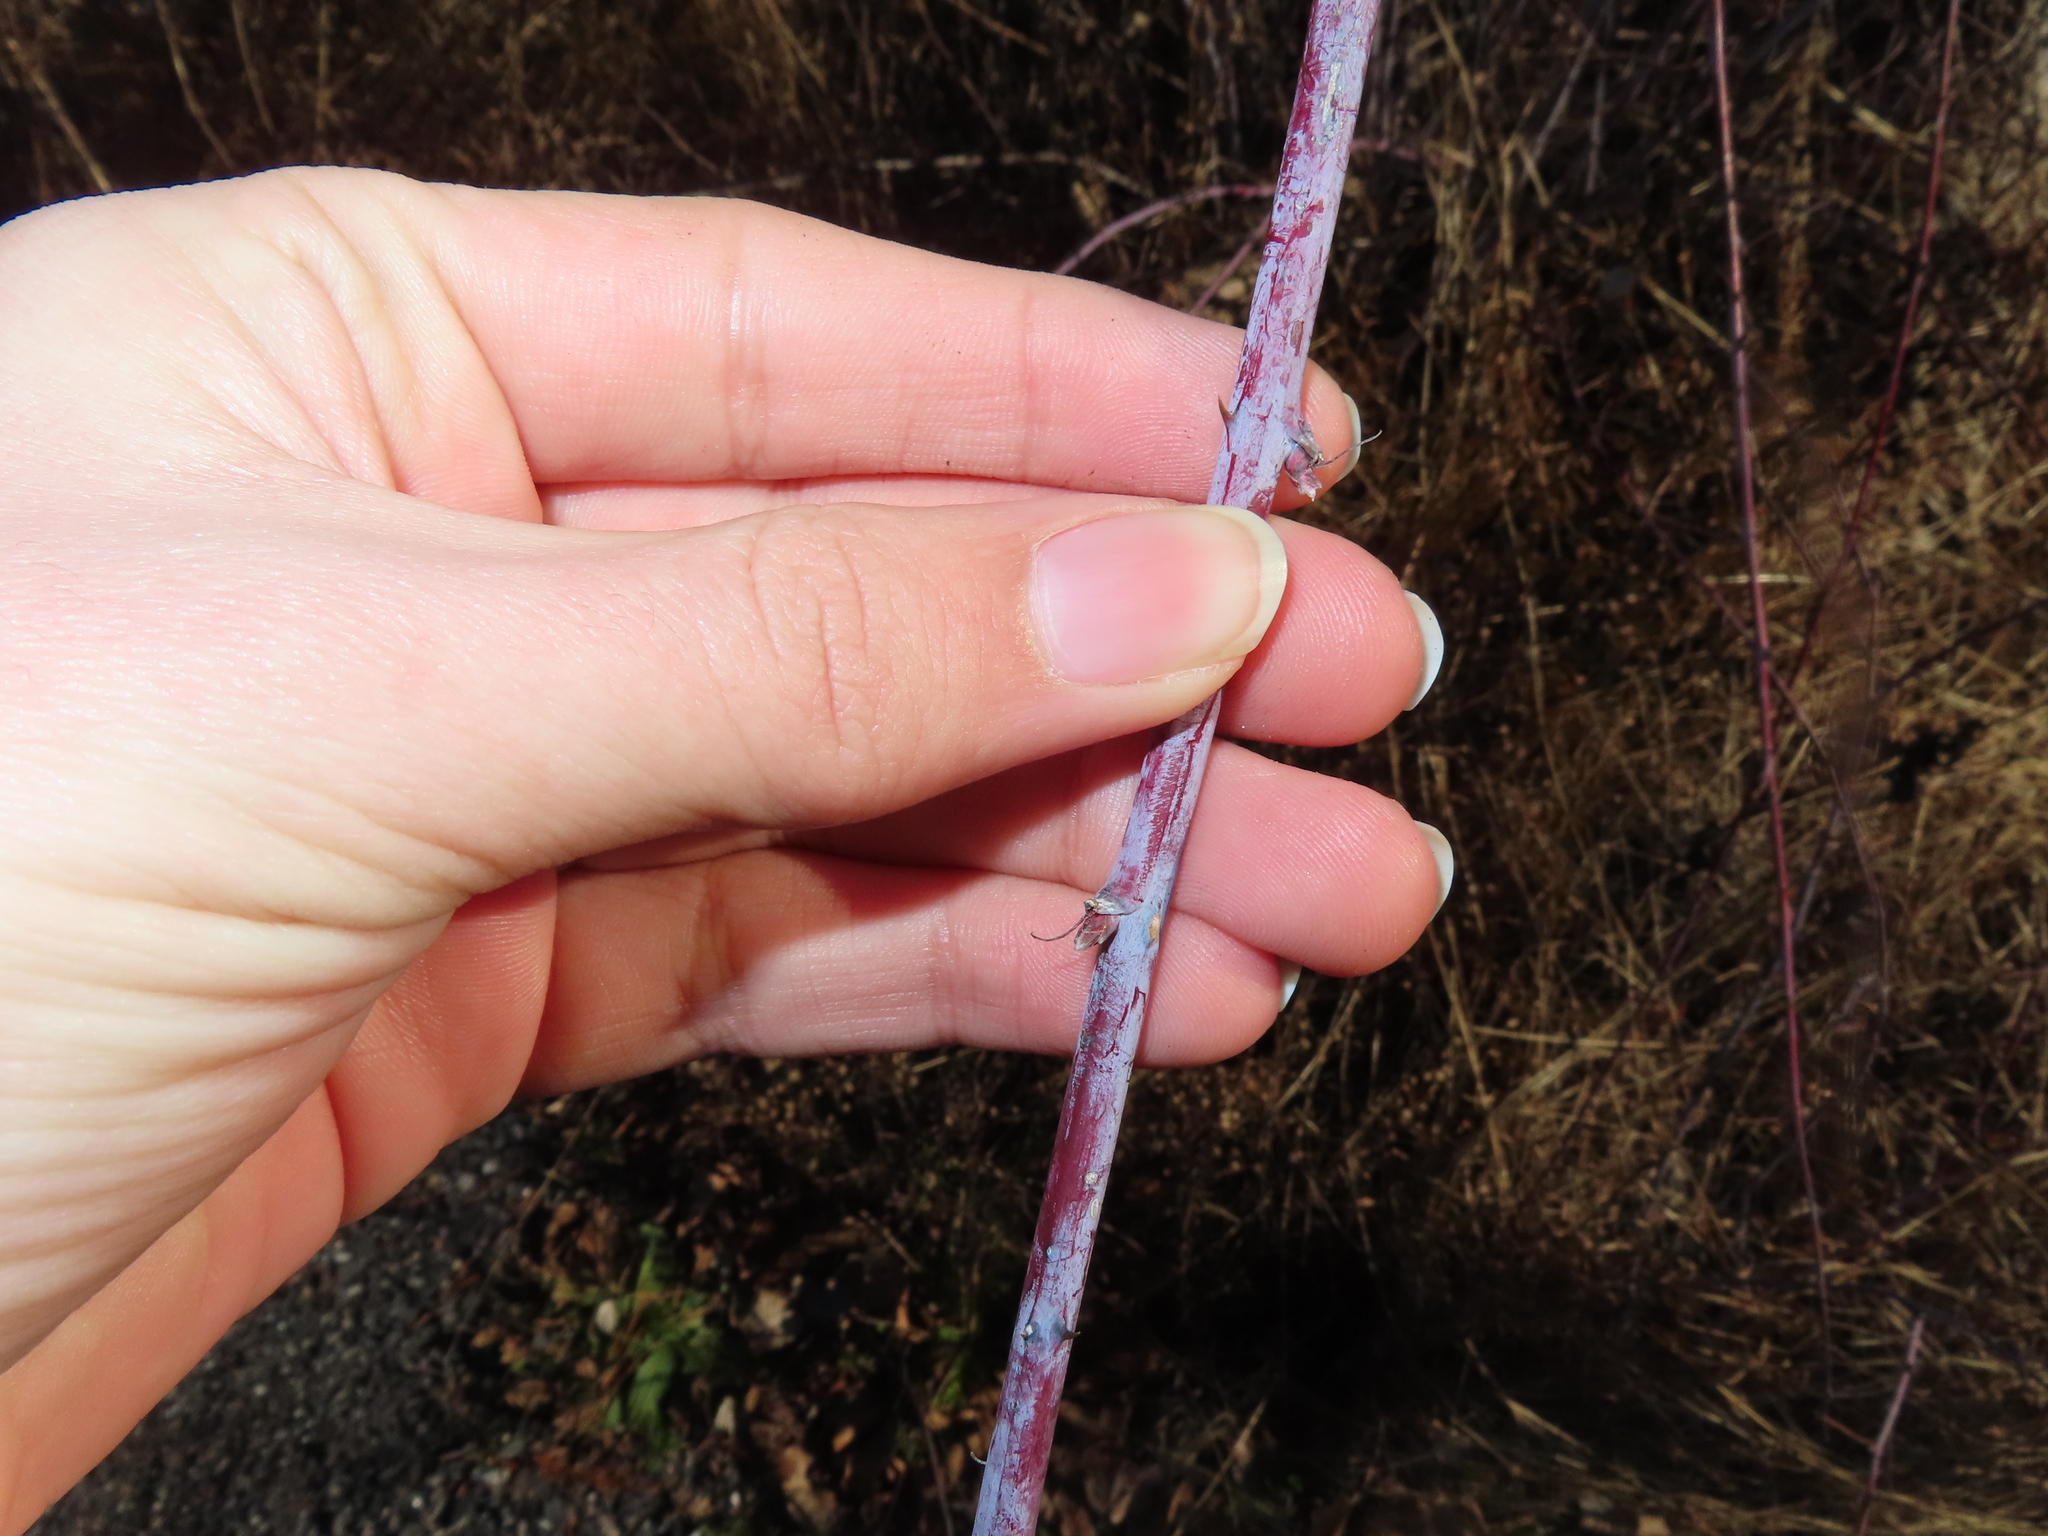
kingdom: Plantae
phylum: Tracheophyta
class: Magnoliopsida
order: Rosales
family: Rosaceae
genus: Rubus
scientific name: Rubus occidentalis
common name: Black raspberry
